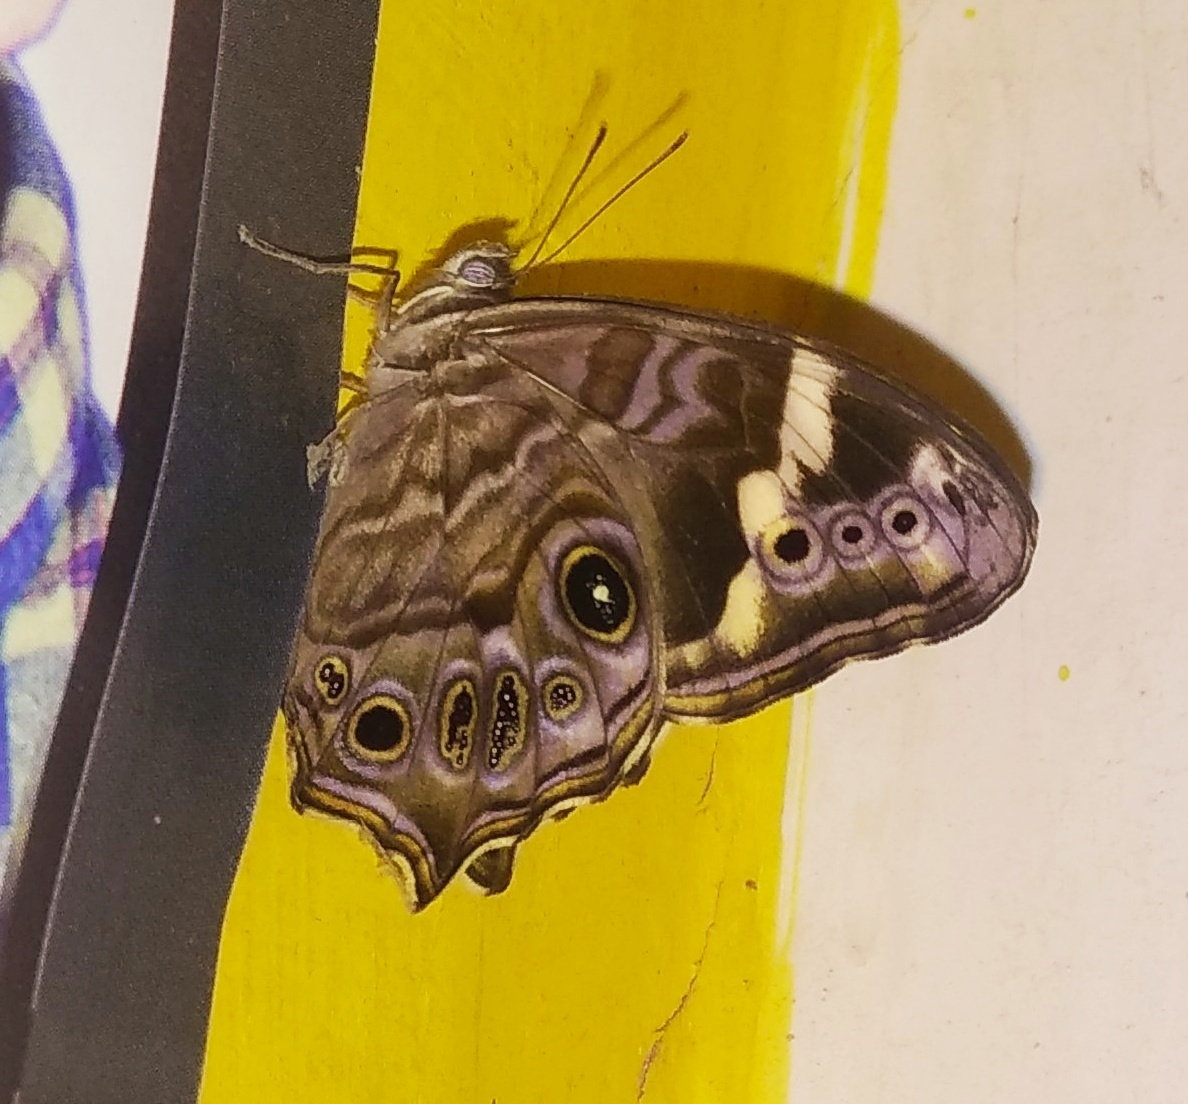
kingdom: Animalia
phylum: Arthropoda
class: Insecta
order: Lepidoptera
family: Nymphalidae
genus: Lethe
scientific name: Lethe rohria
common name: Common treebrown
